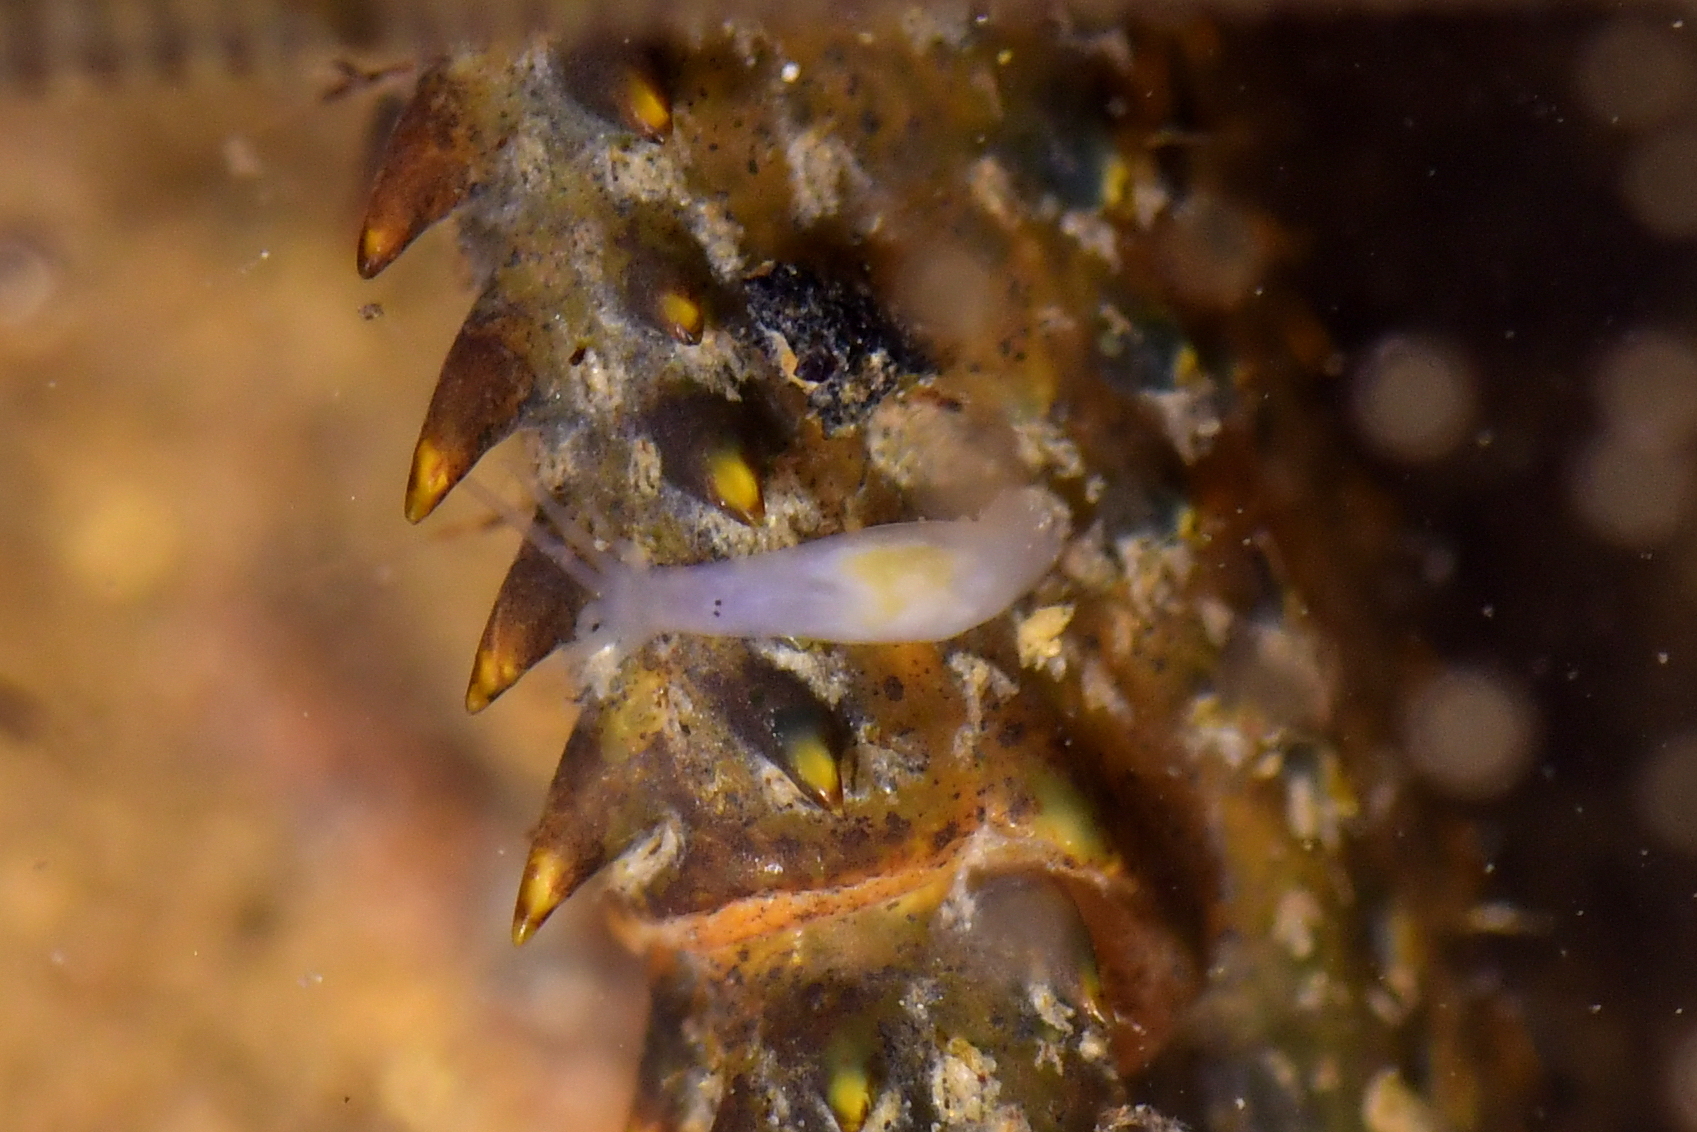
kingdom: Animalia
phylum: Platyhelminthes
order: Rhabdocoela
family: Temnocephalidae
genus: Temnohaswellia
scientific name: Temnohaswellia novaezealandiae
